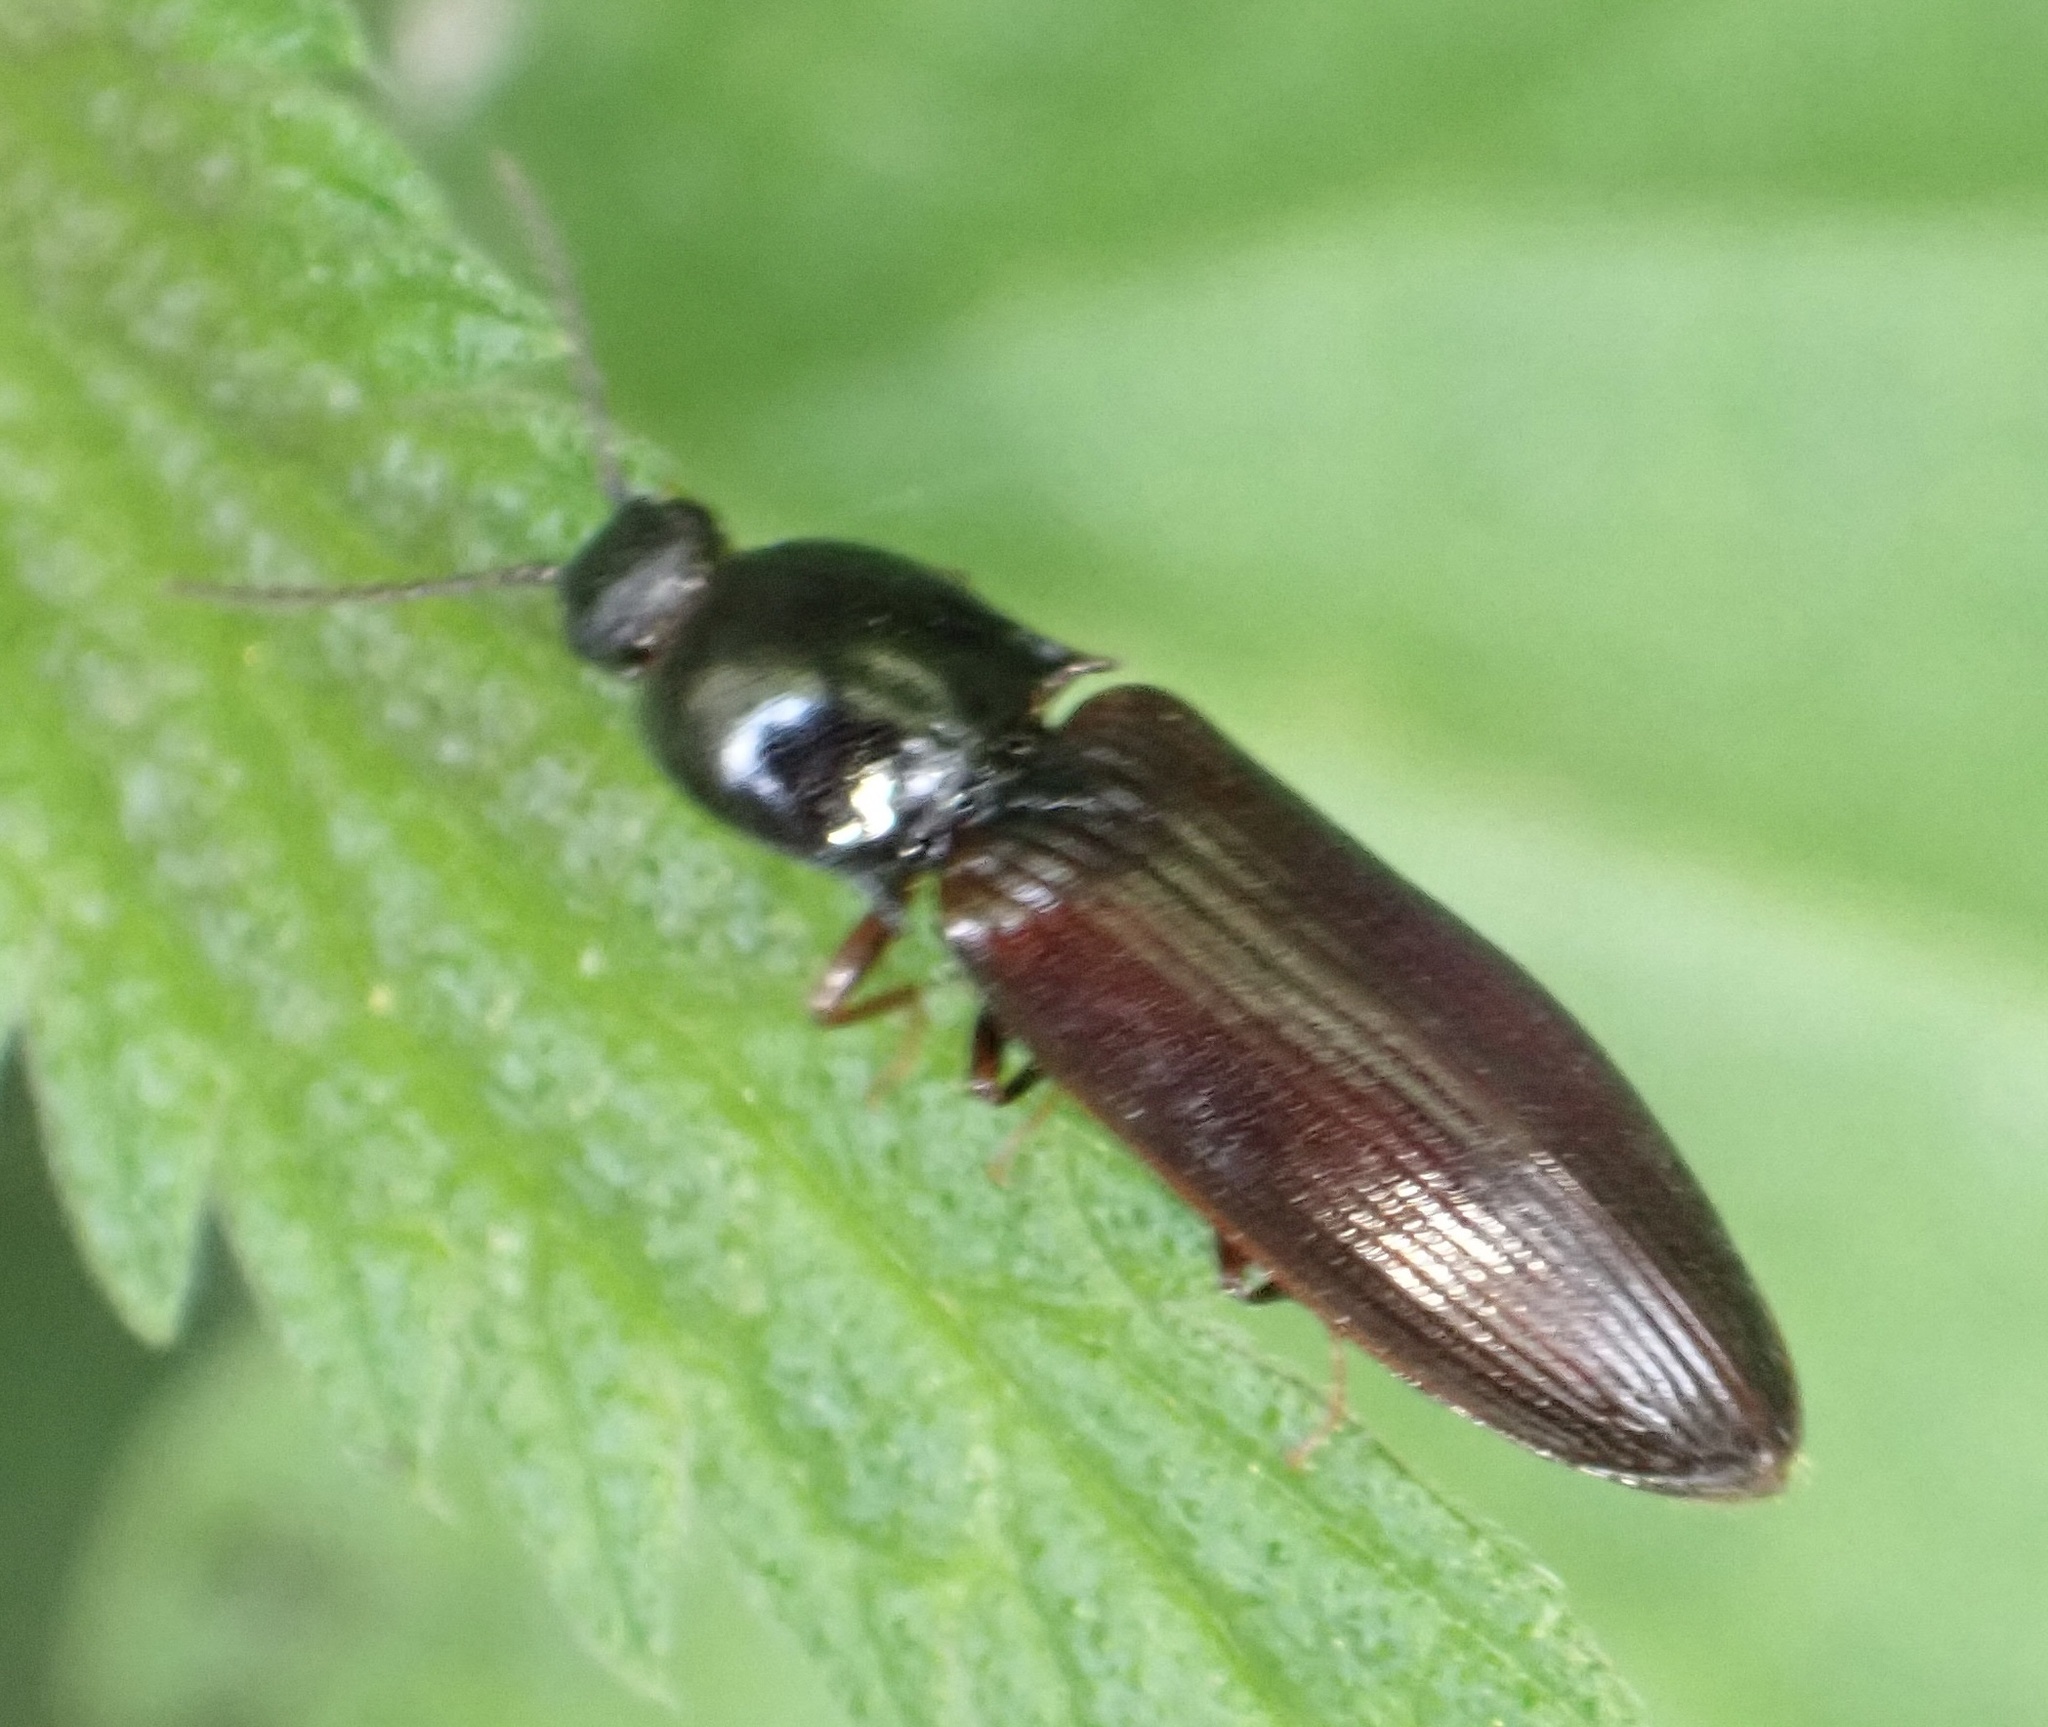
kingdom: Animalia
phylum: Arthropoda
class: Insecta
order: Coleoptera
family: Elateridae
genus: Hypoganus
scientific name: Hypoganus inunctus
